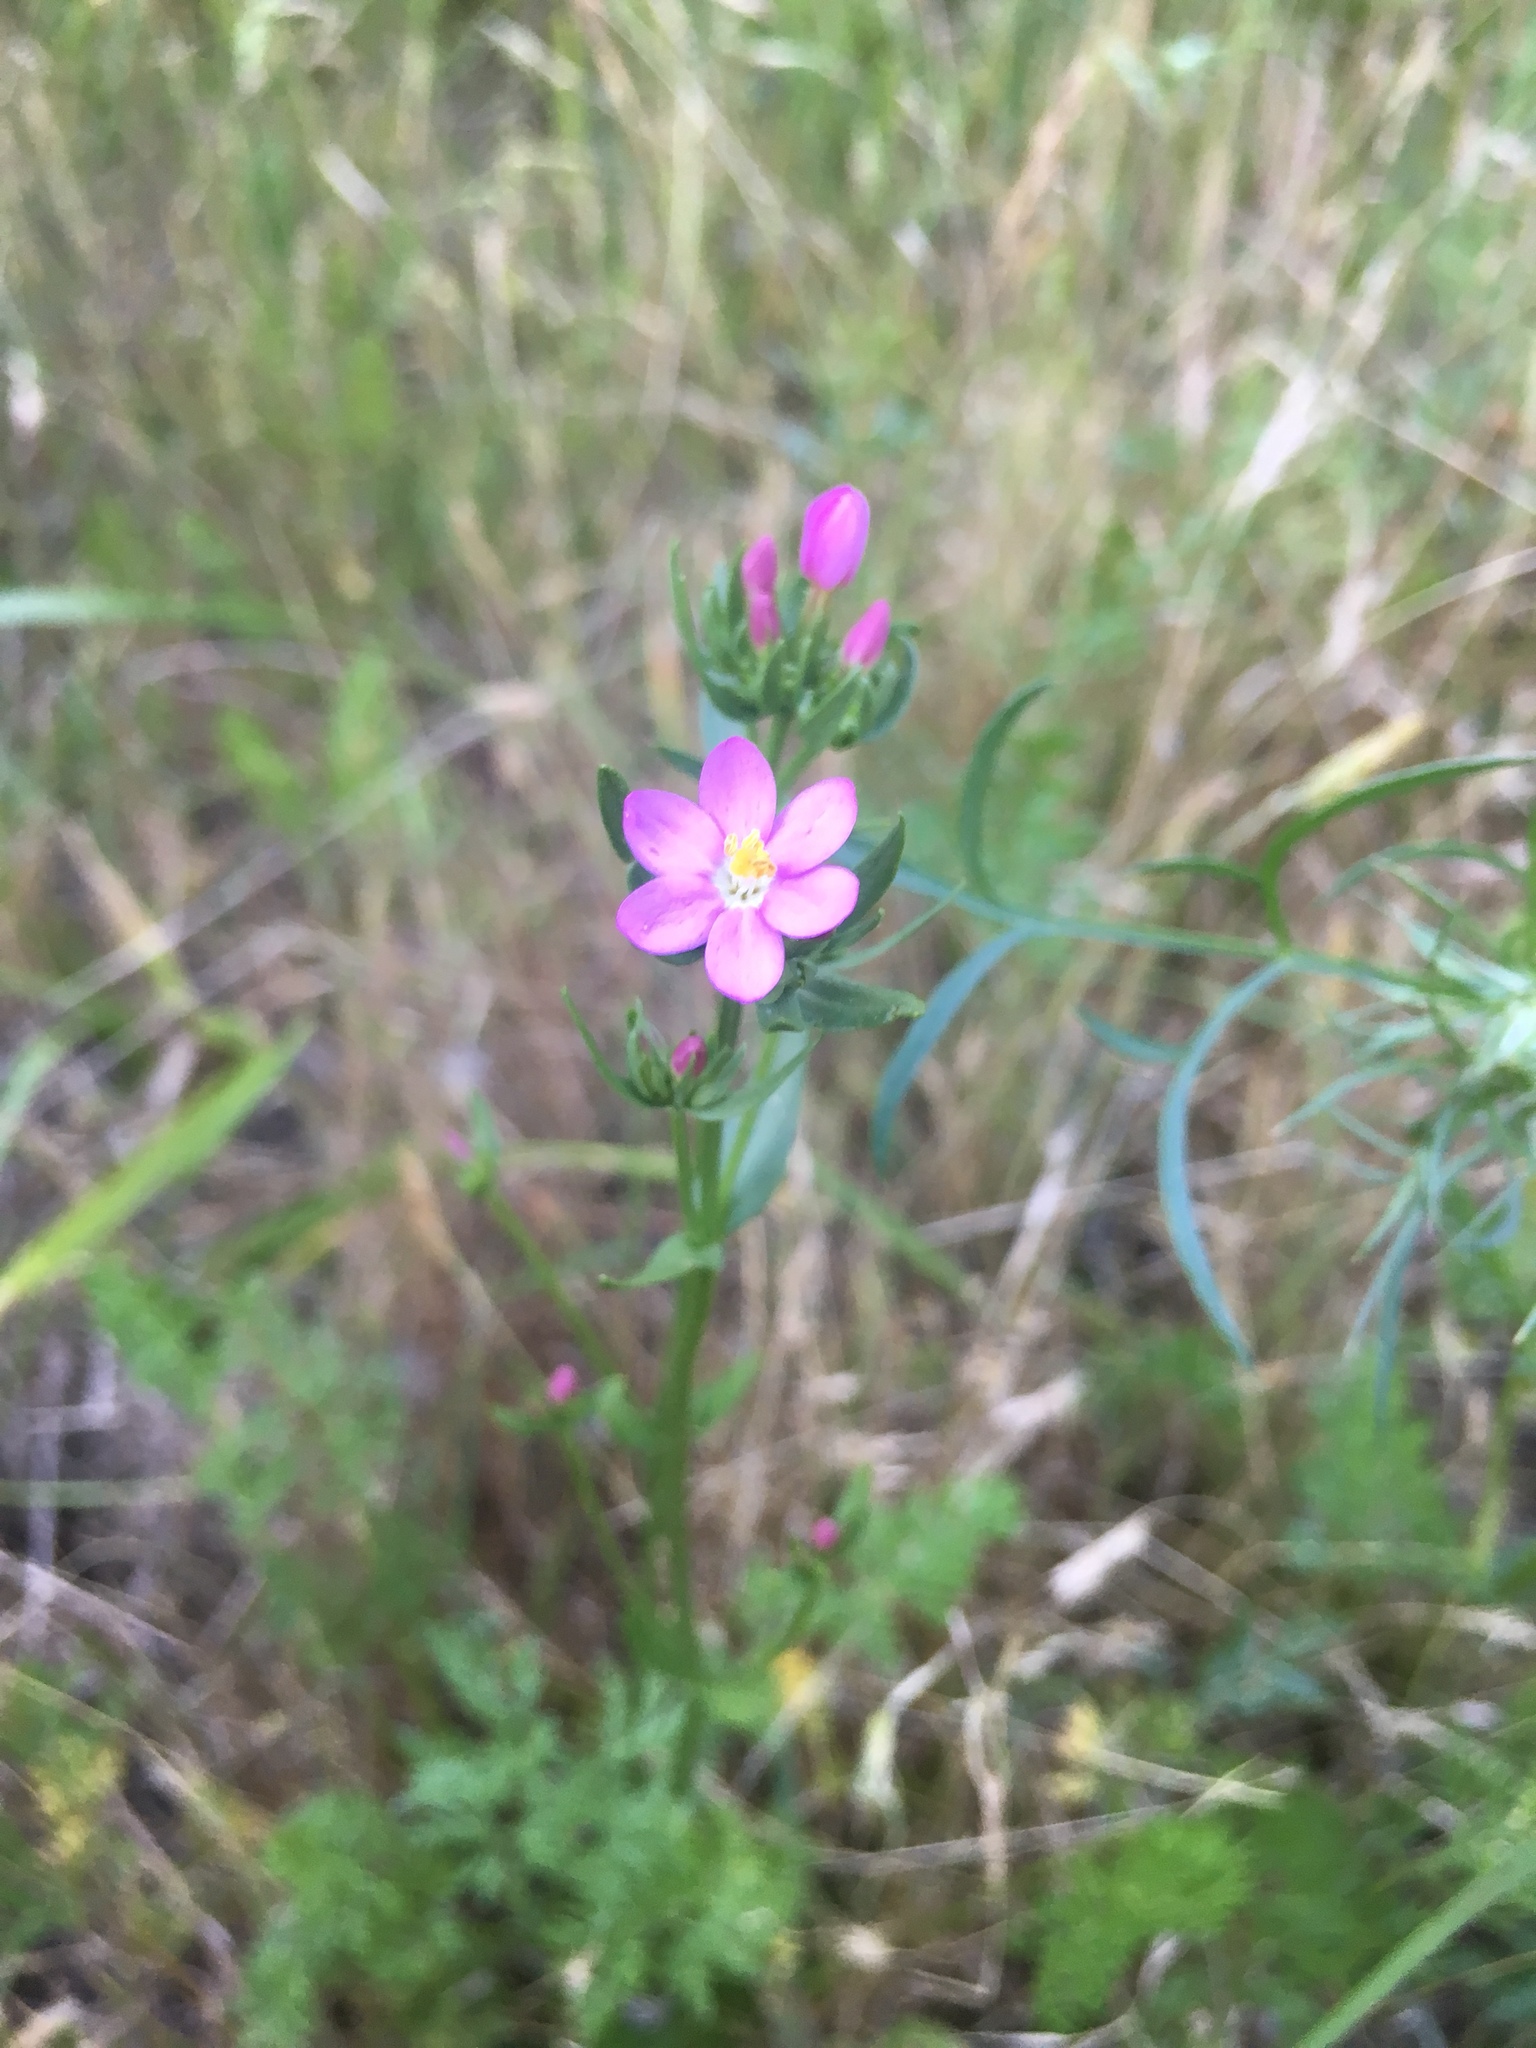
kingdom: Plantae
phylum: Tracheophyta
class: Magnoliopsida
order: Gentianales
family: Gentianaceae
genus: Zeltnera
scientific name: Zeltnera muhlenbergii
